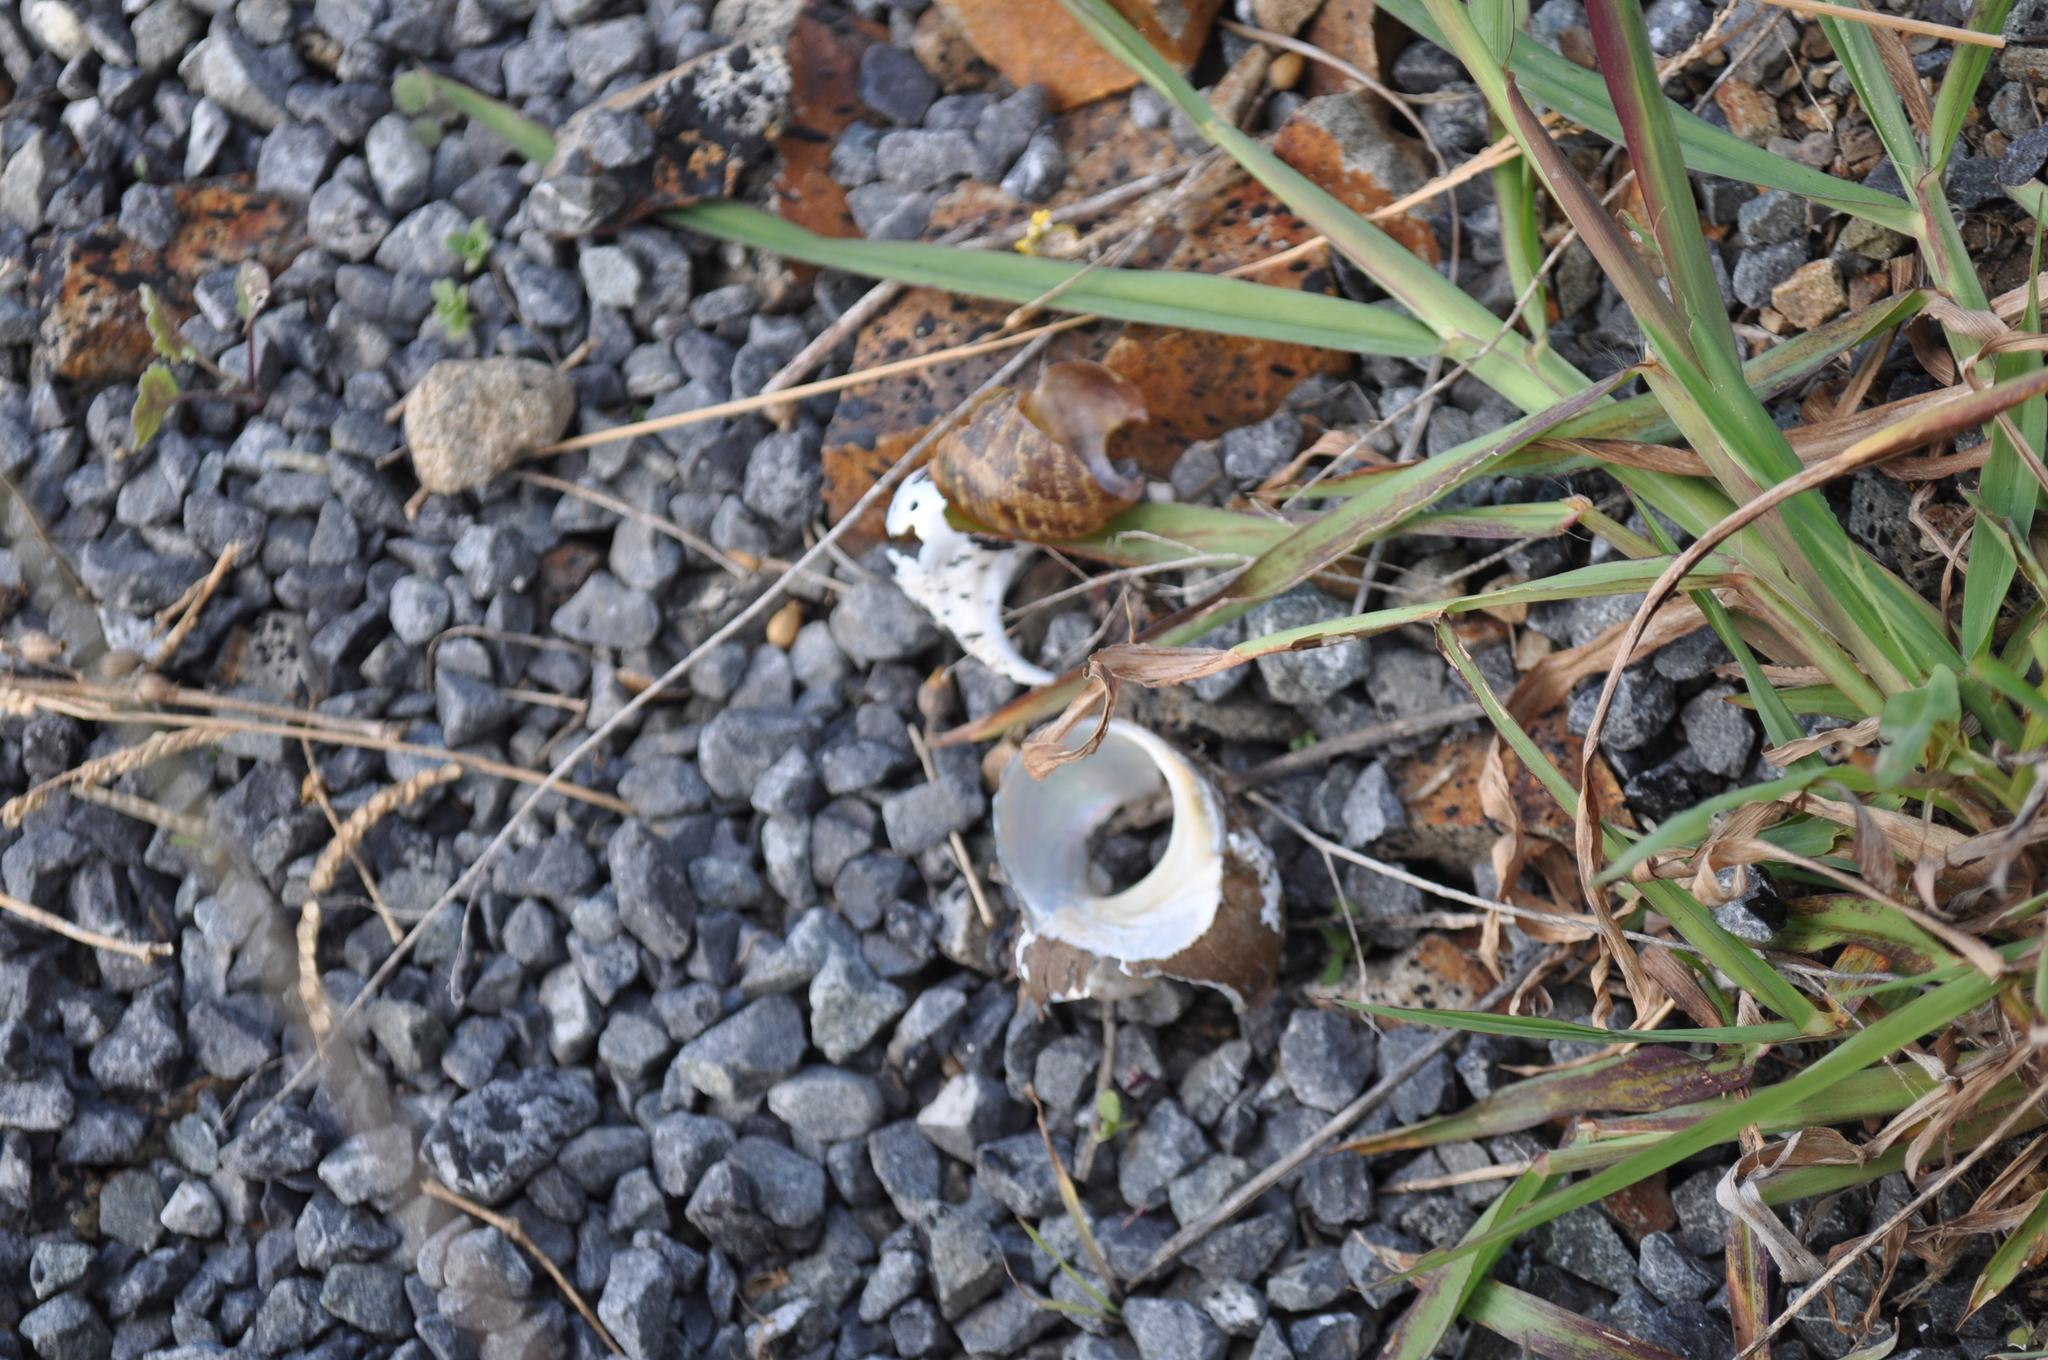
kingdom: Animalia
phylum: Mollusca
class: Gastropoda
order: Stylommatophora
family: Helicidae
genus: Cornu
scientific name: Cornu aspersum
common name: Brown garden snail
